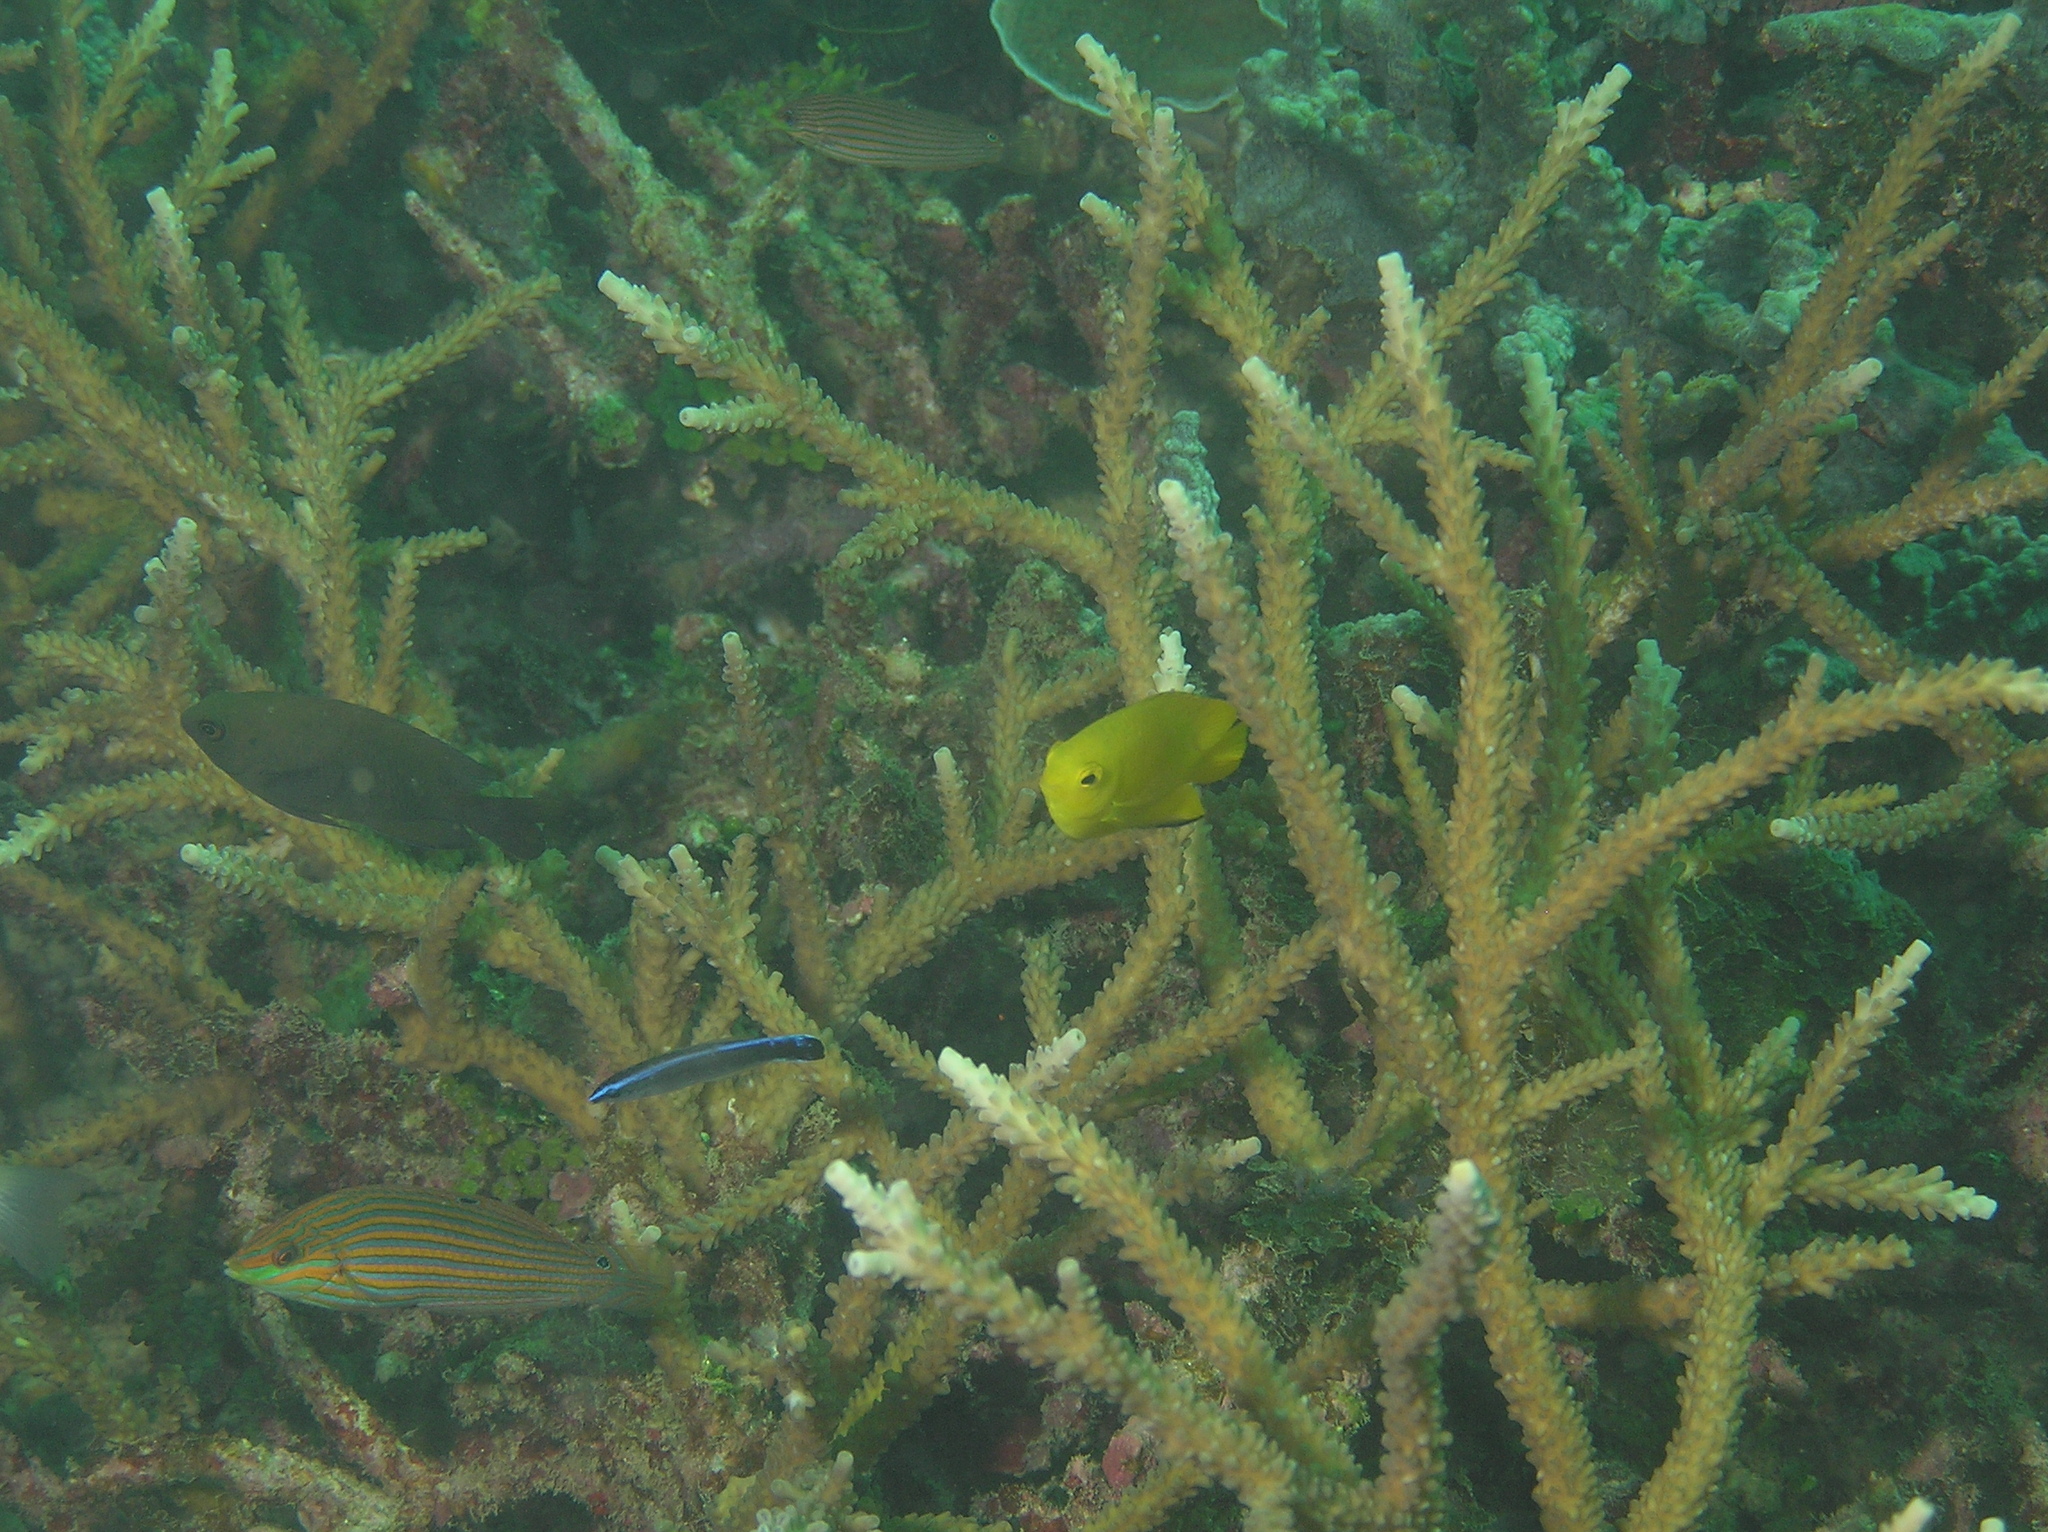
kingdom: Animalia
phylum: Chordata
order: Perciformes
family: Labridae
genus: Halichoeres
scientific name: Halichoeres melanurus
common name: Hoeven's wrasse
